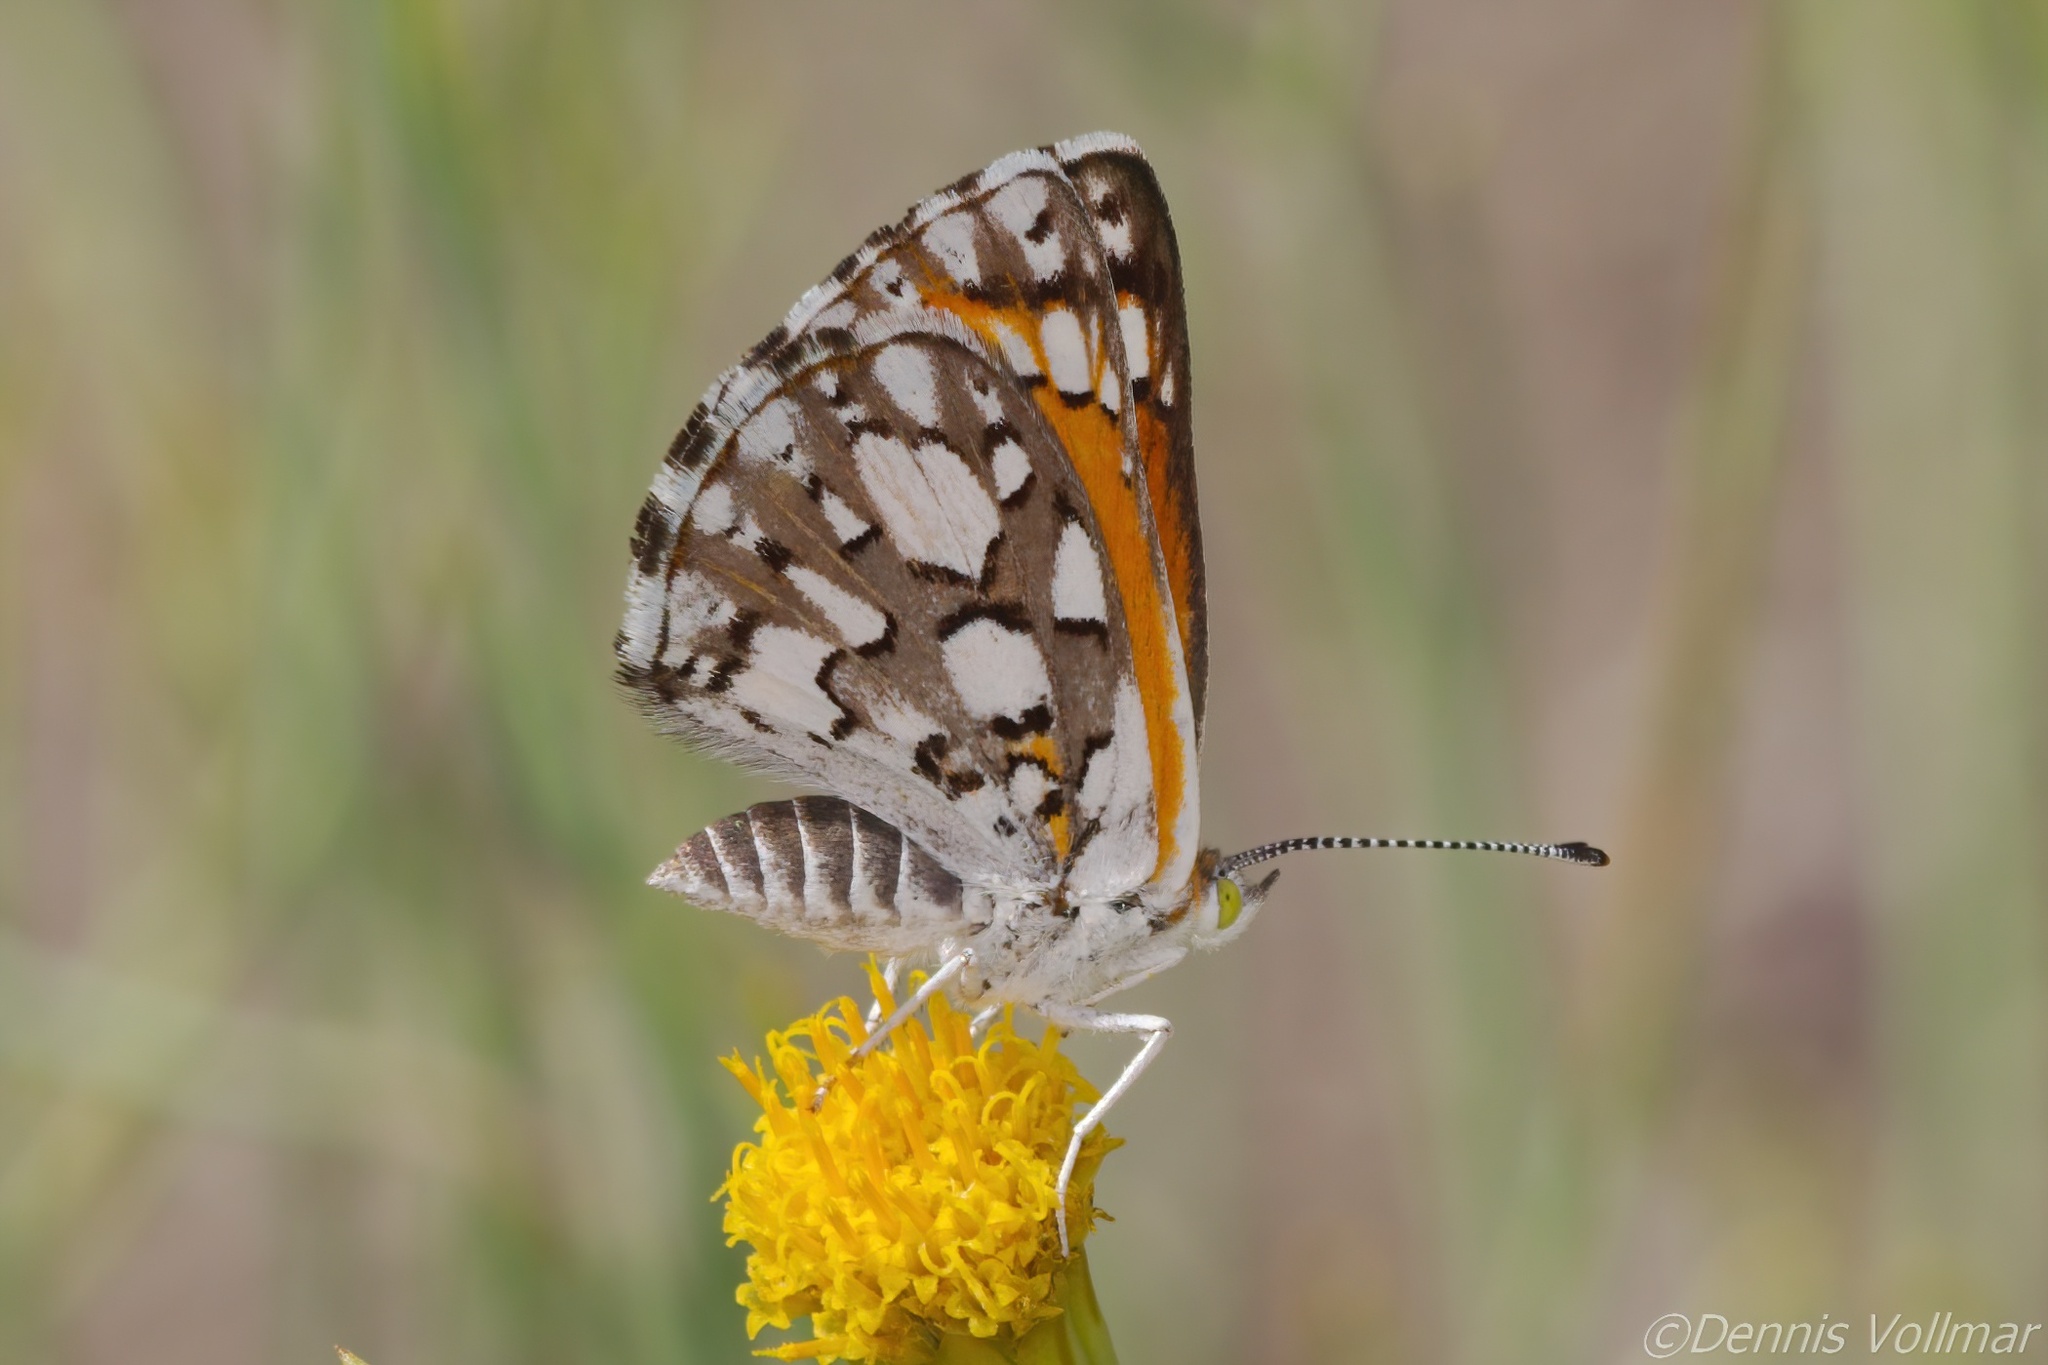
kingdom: Animalia
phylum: Arthropoda
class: Insecta
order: Lepidoptera
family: Riodinidae
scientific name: Riodinidae
